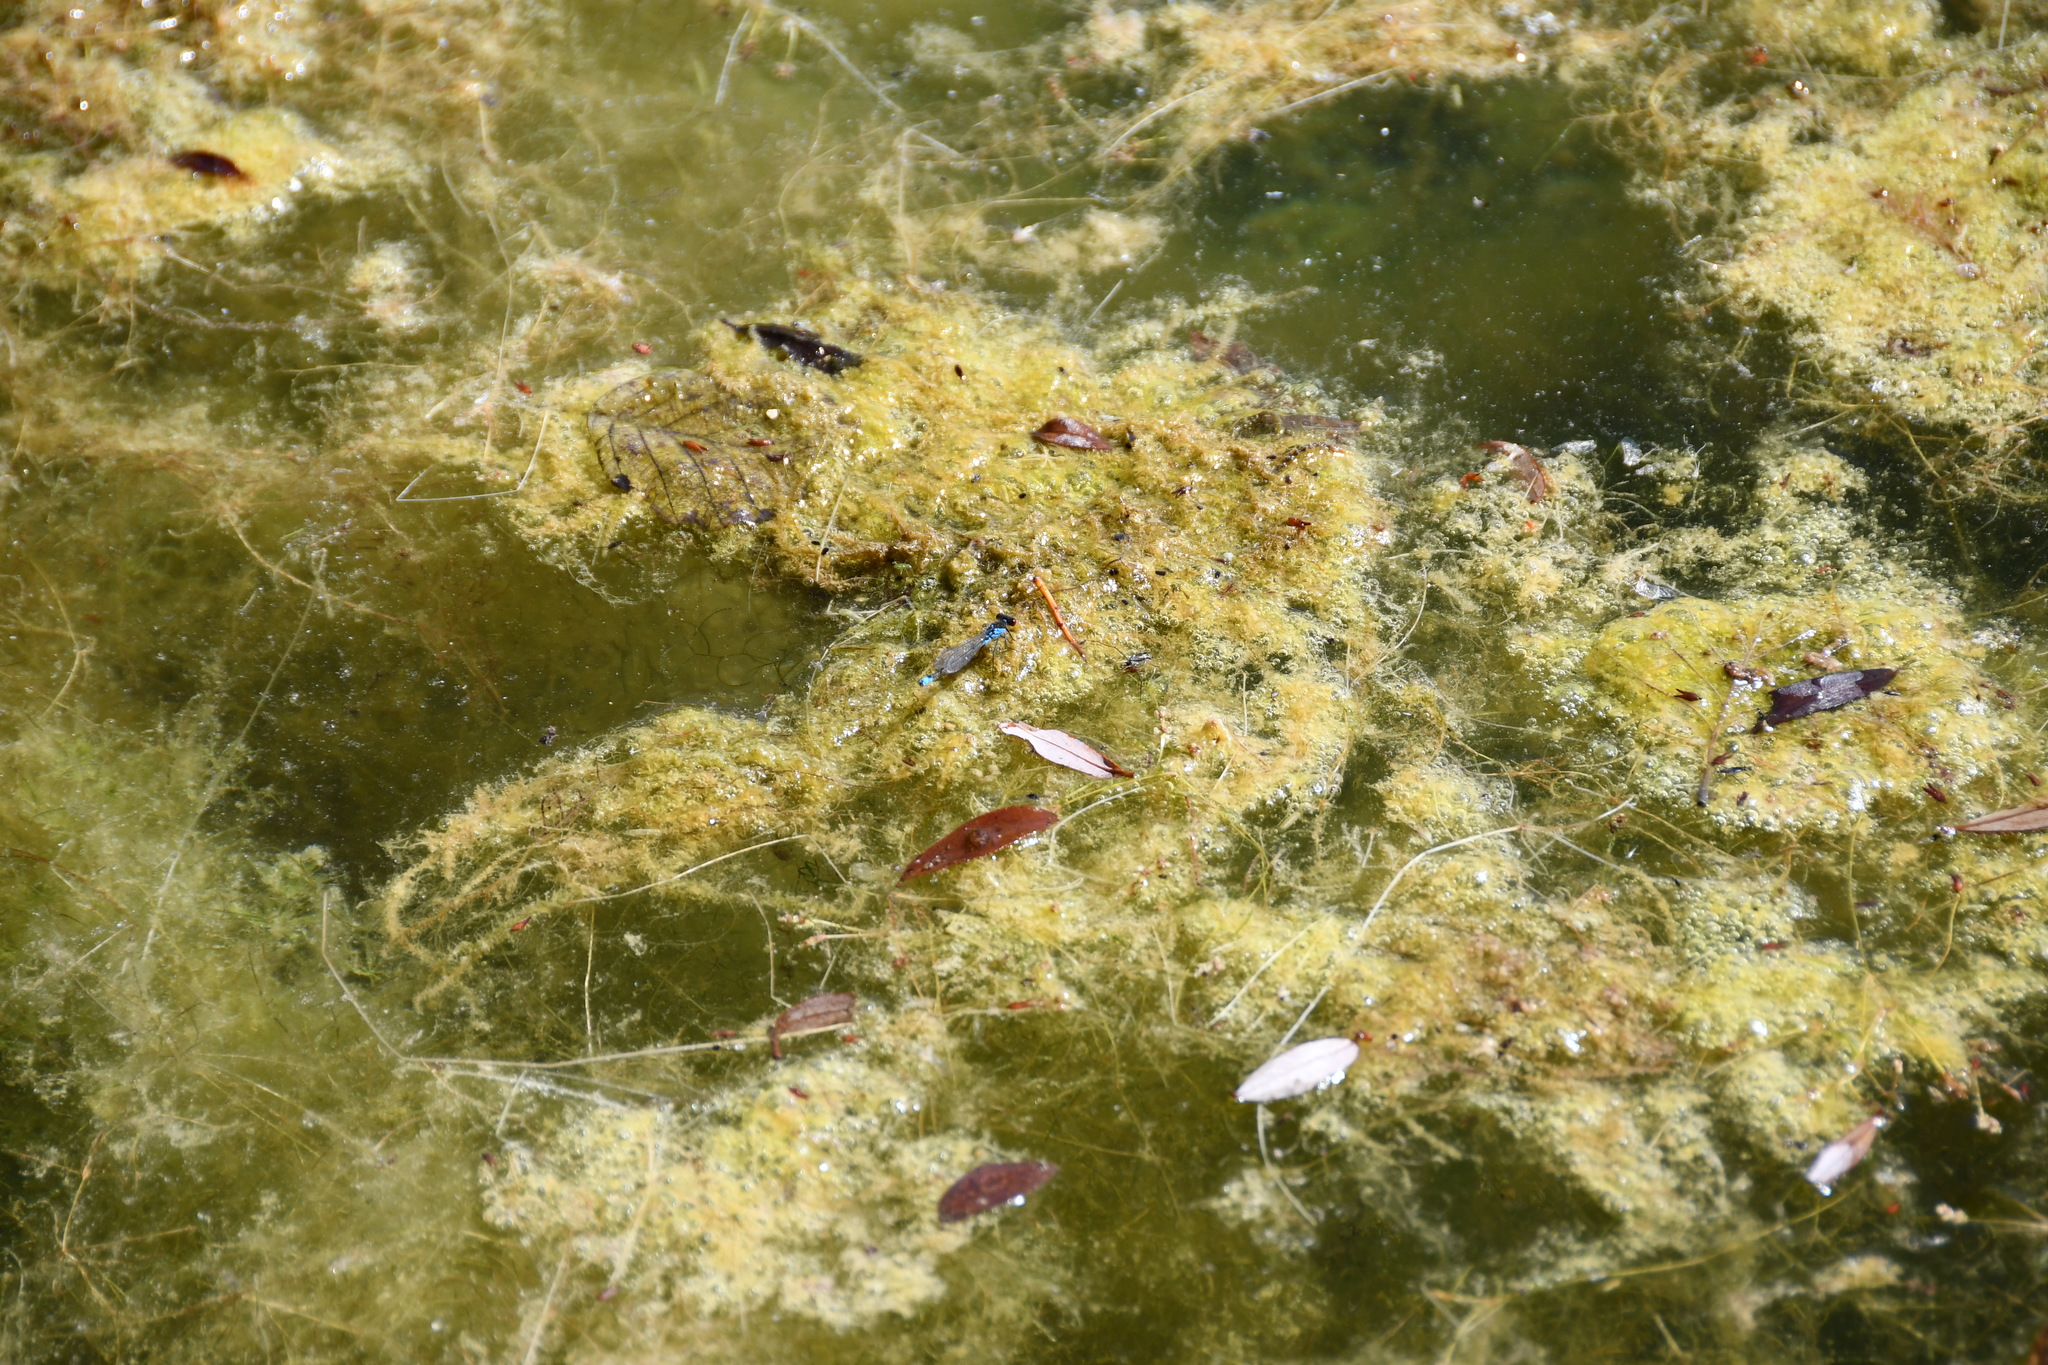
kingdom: Animalia
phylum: Arthropoda
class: Insecta
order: Odonata
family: Coenagrionidae
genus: Erythromma
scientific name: Erythromma viridulum
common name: Small red-eyed damselfly
